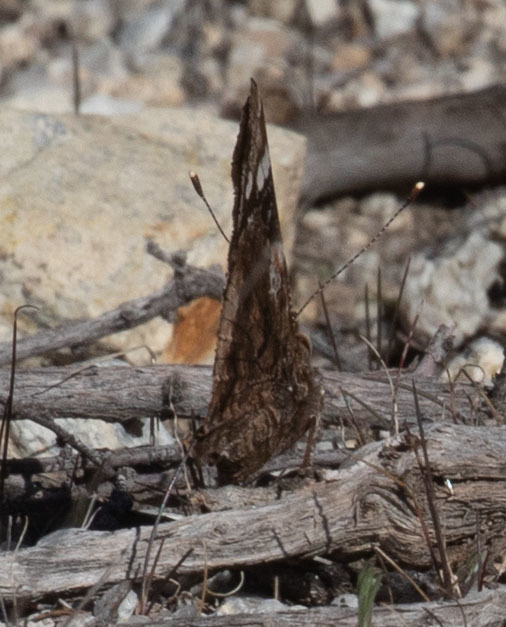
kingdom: Animalia
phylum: Arthropoda
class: Insecta
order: Lepidoptera
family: Nymphalidae
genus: Vanessa
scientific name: Vanessa atalanta
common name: Red admiral
